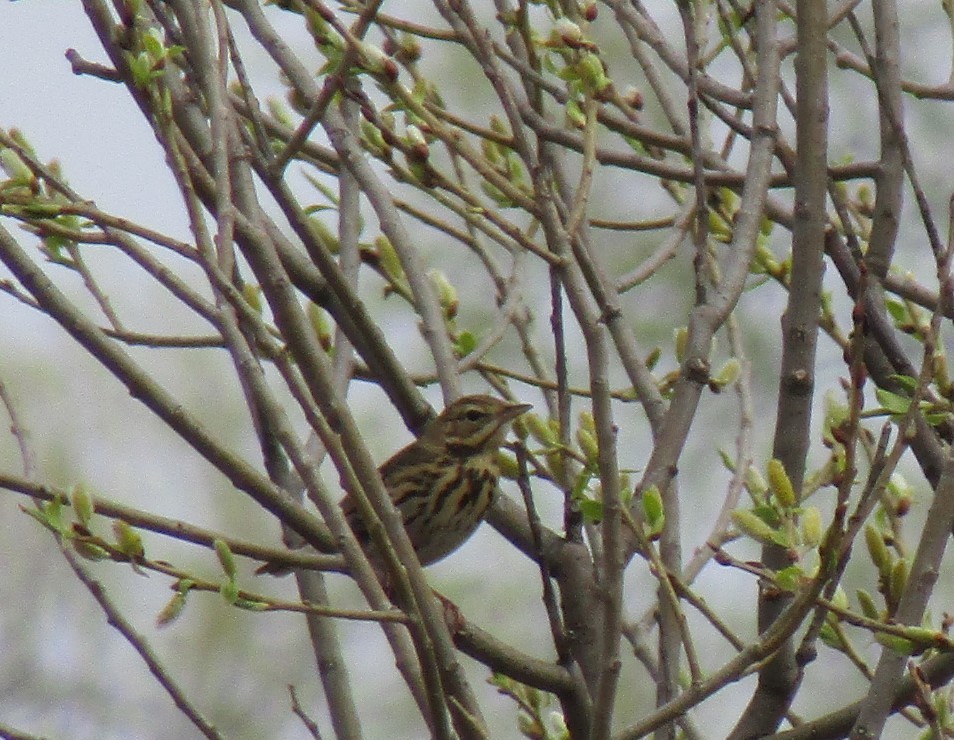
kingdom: Animalia
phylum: Chordata
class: Aves
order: Passeriformes
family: Motacillidae
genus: Anthus
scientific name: Anthus trivialis
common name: Tree pipit
